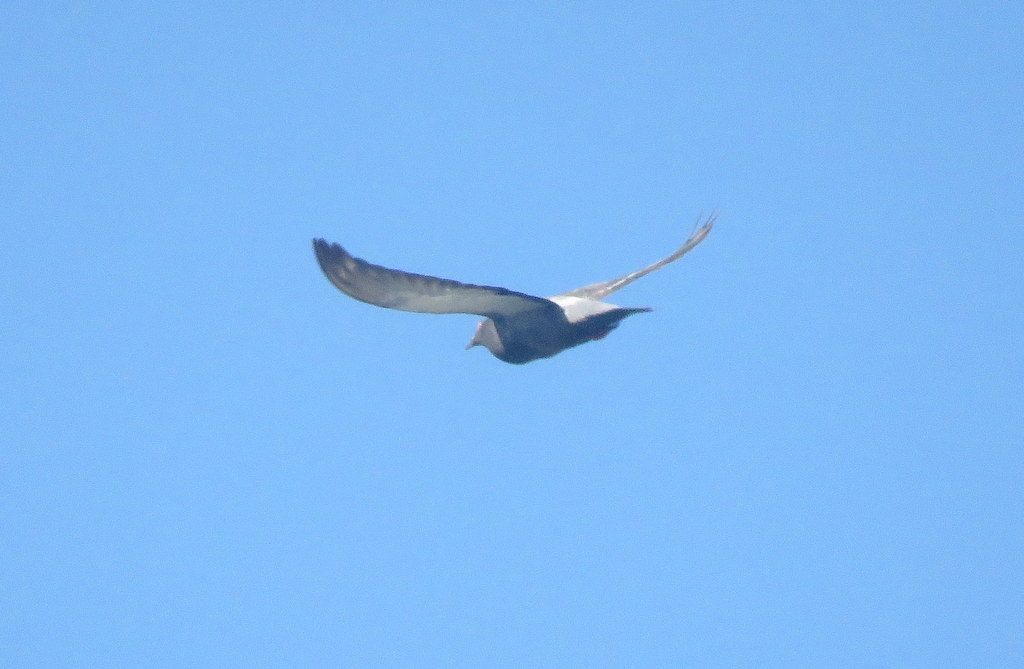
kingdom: Animalia
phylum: Chordata
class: Aves
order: Columbiformes
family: Columbidae
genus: Columba
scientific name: Columba livia
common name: Rock pigeon
